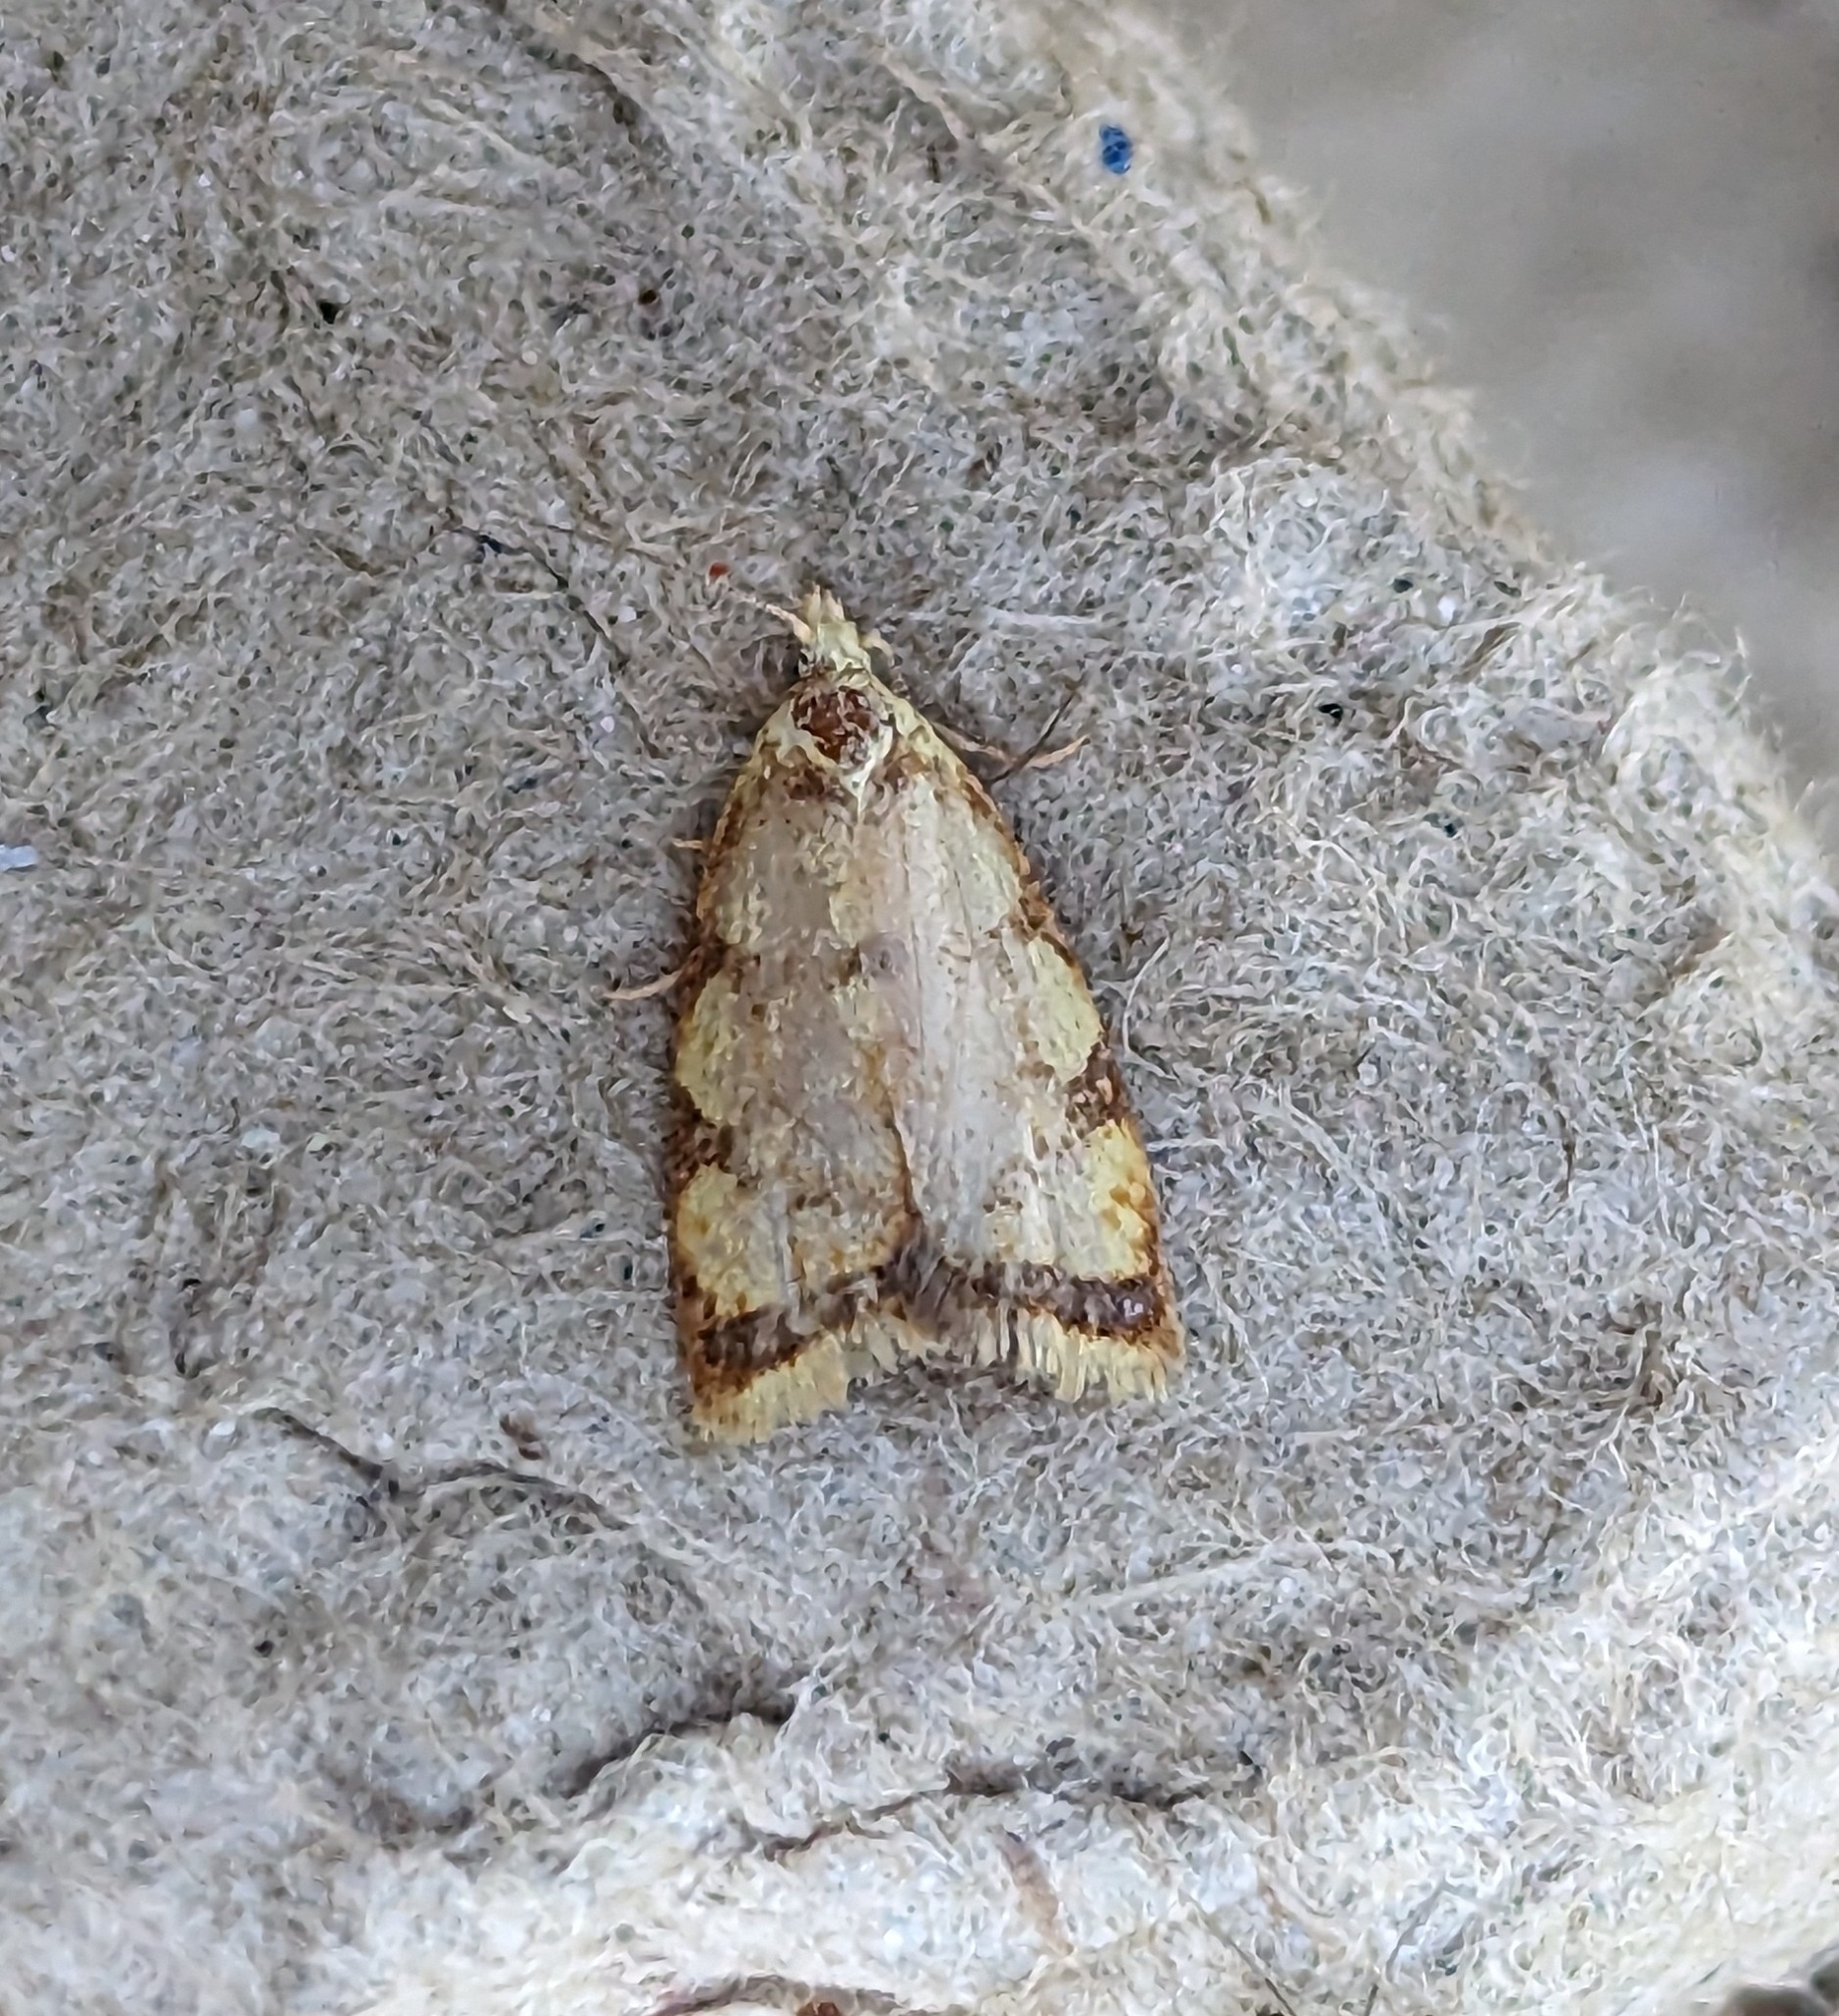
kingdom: Animalia
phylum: Arthropoda
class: Insecta
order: Lepidoptera
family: Tortricidae
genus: Acleris
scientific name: Acleris albicomana
